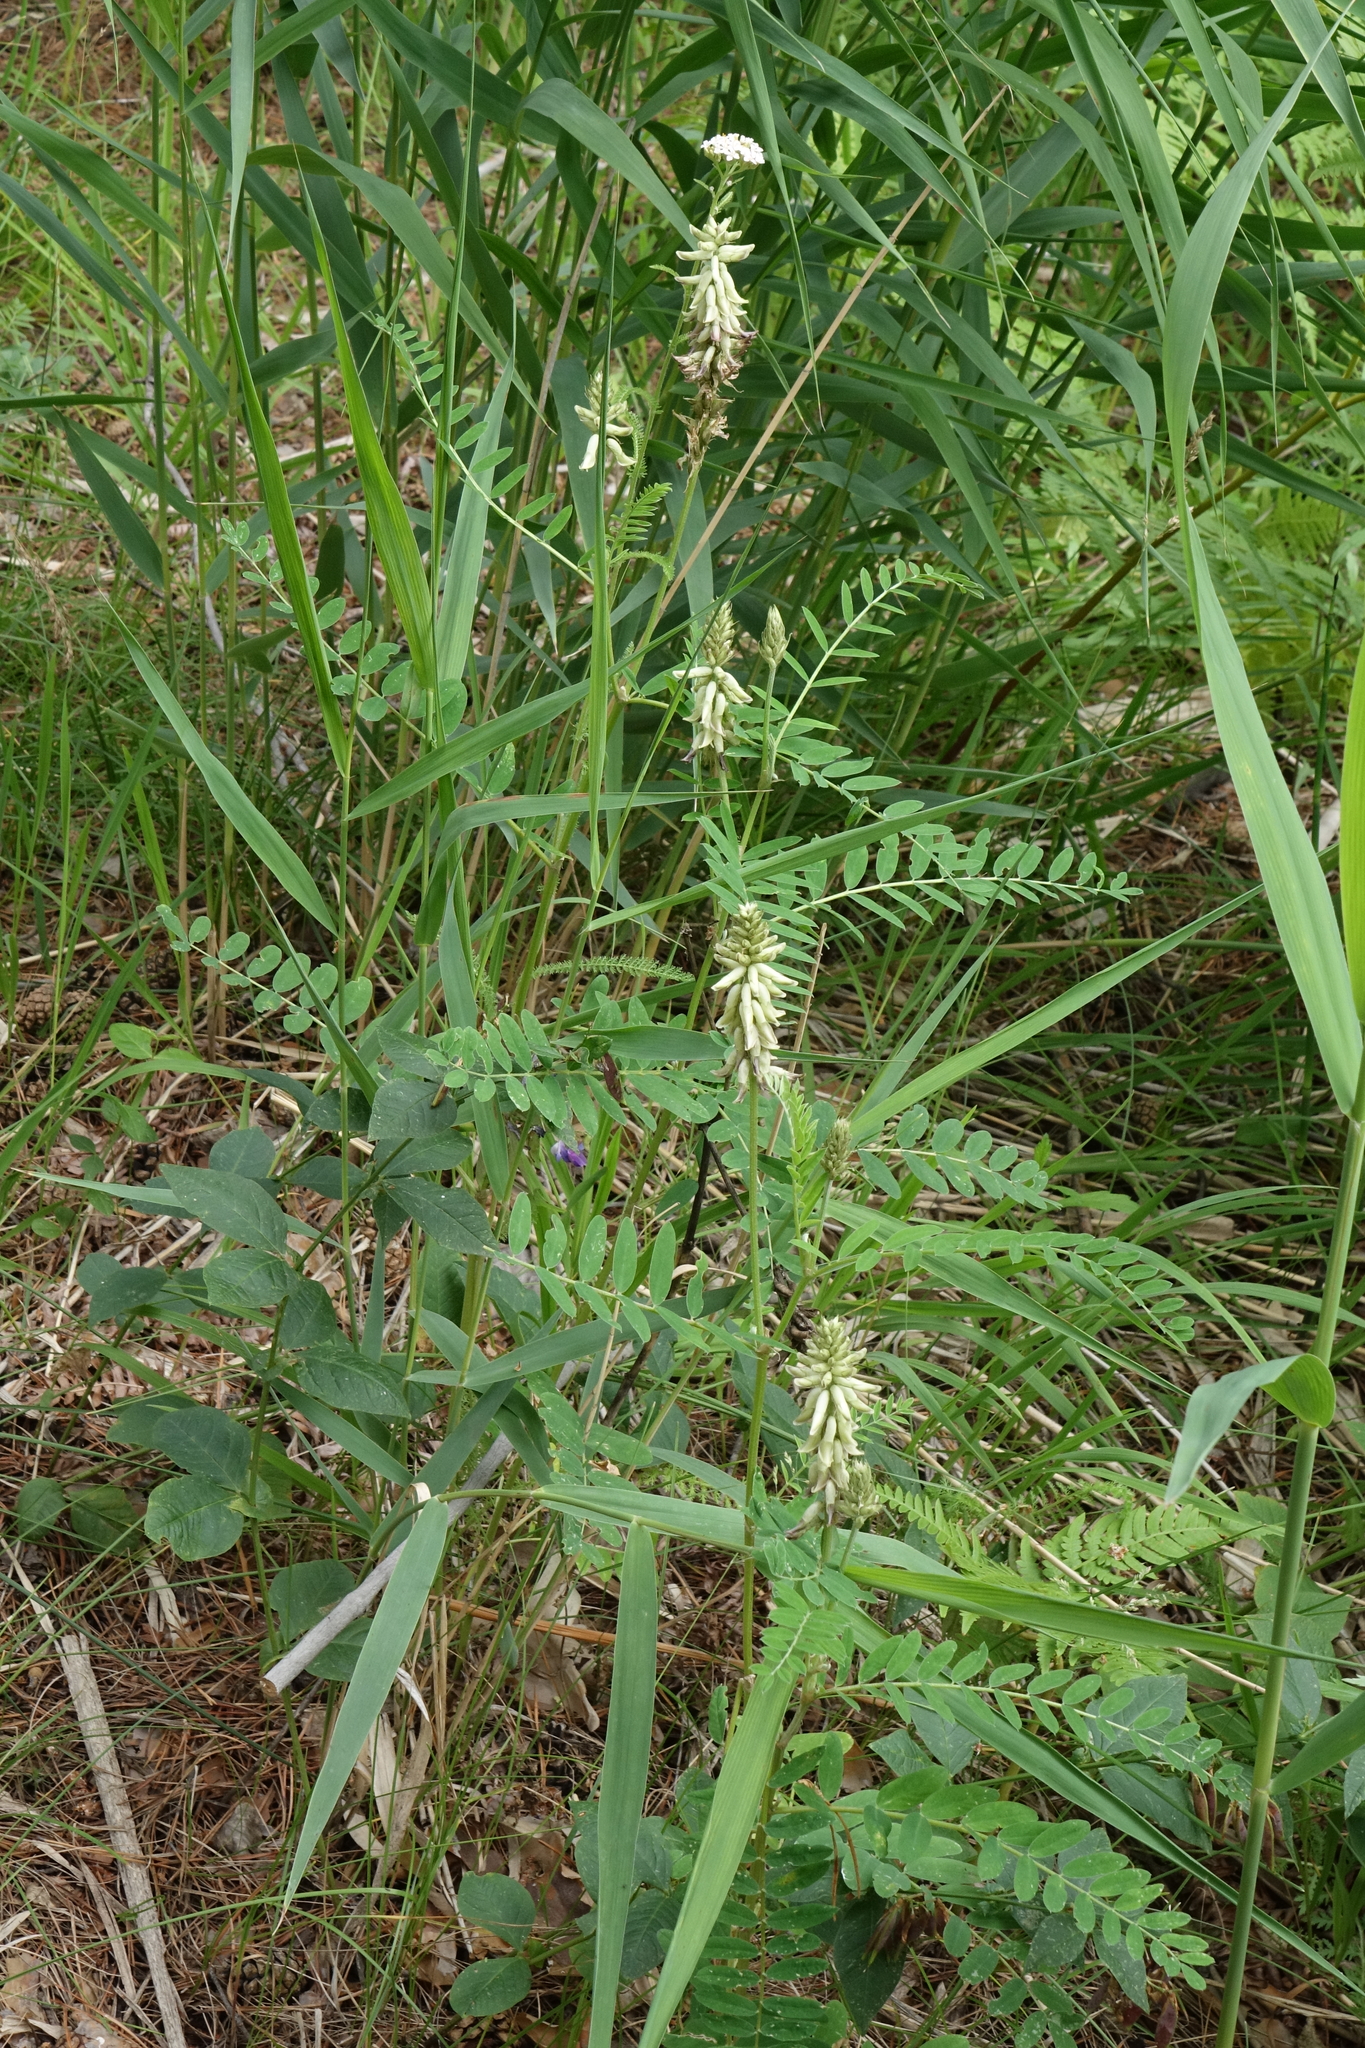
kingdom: Plantae
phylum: Tracheophyta
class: Magnoliopsida
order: Fabales
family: Fabaceae
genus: Astragalus
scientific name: Astragalus uliginosus
